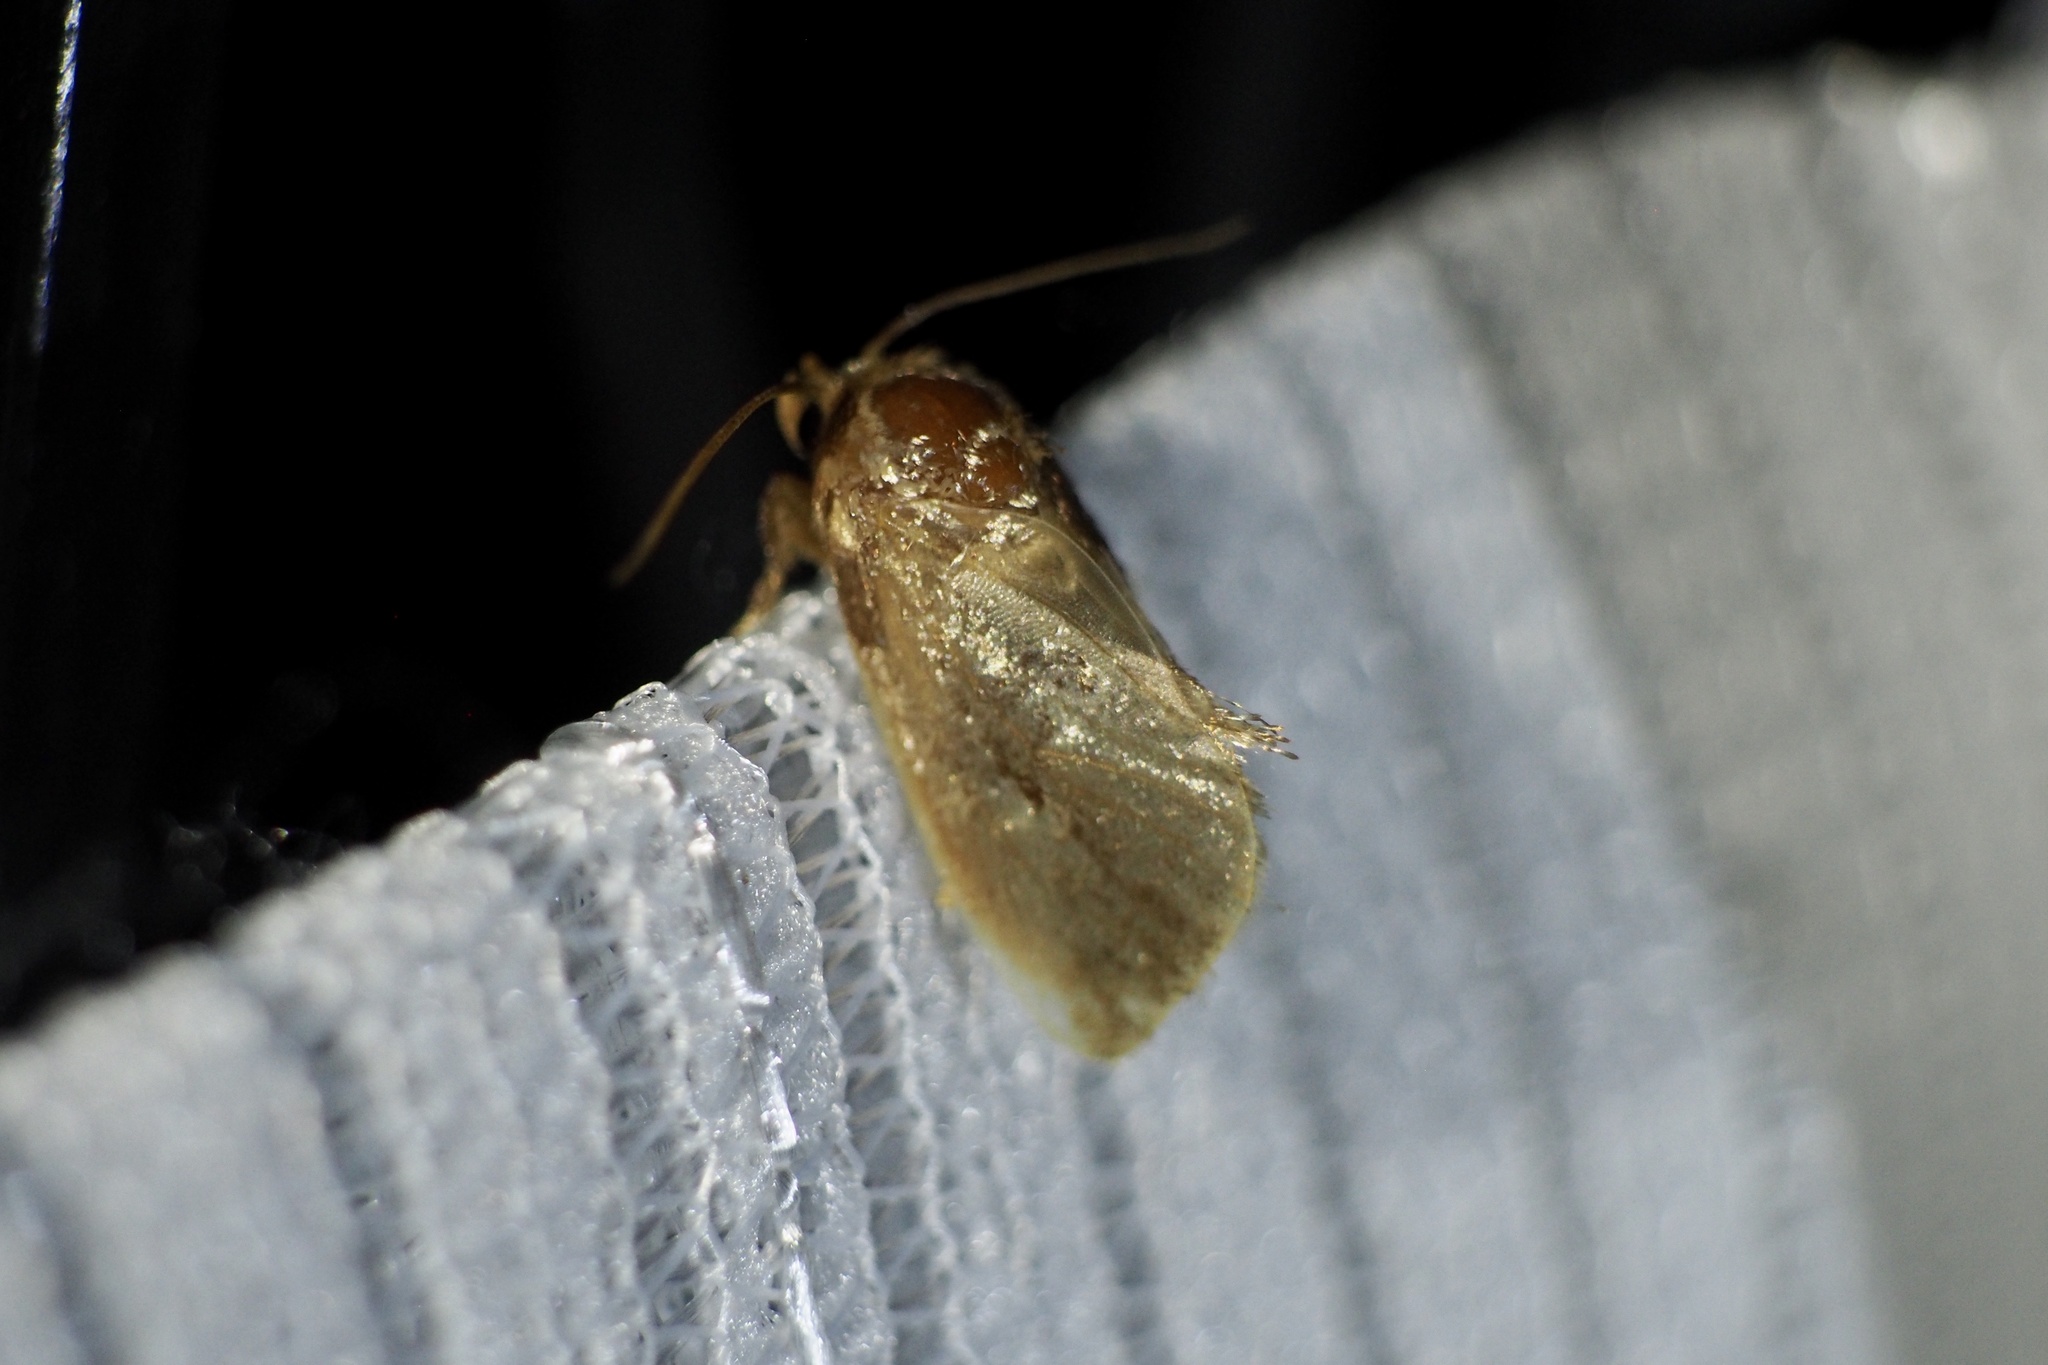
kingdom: Animalia
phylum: Arthropoda
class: Insecta
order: Lepidoptera
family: Limacodidae
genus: Phrixolepia
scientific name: Phrixolepia sericea
